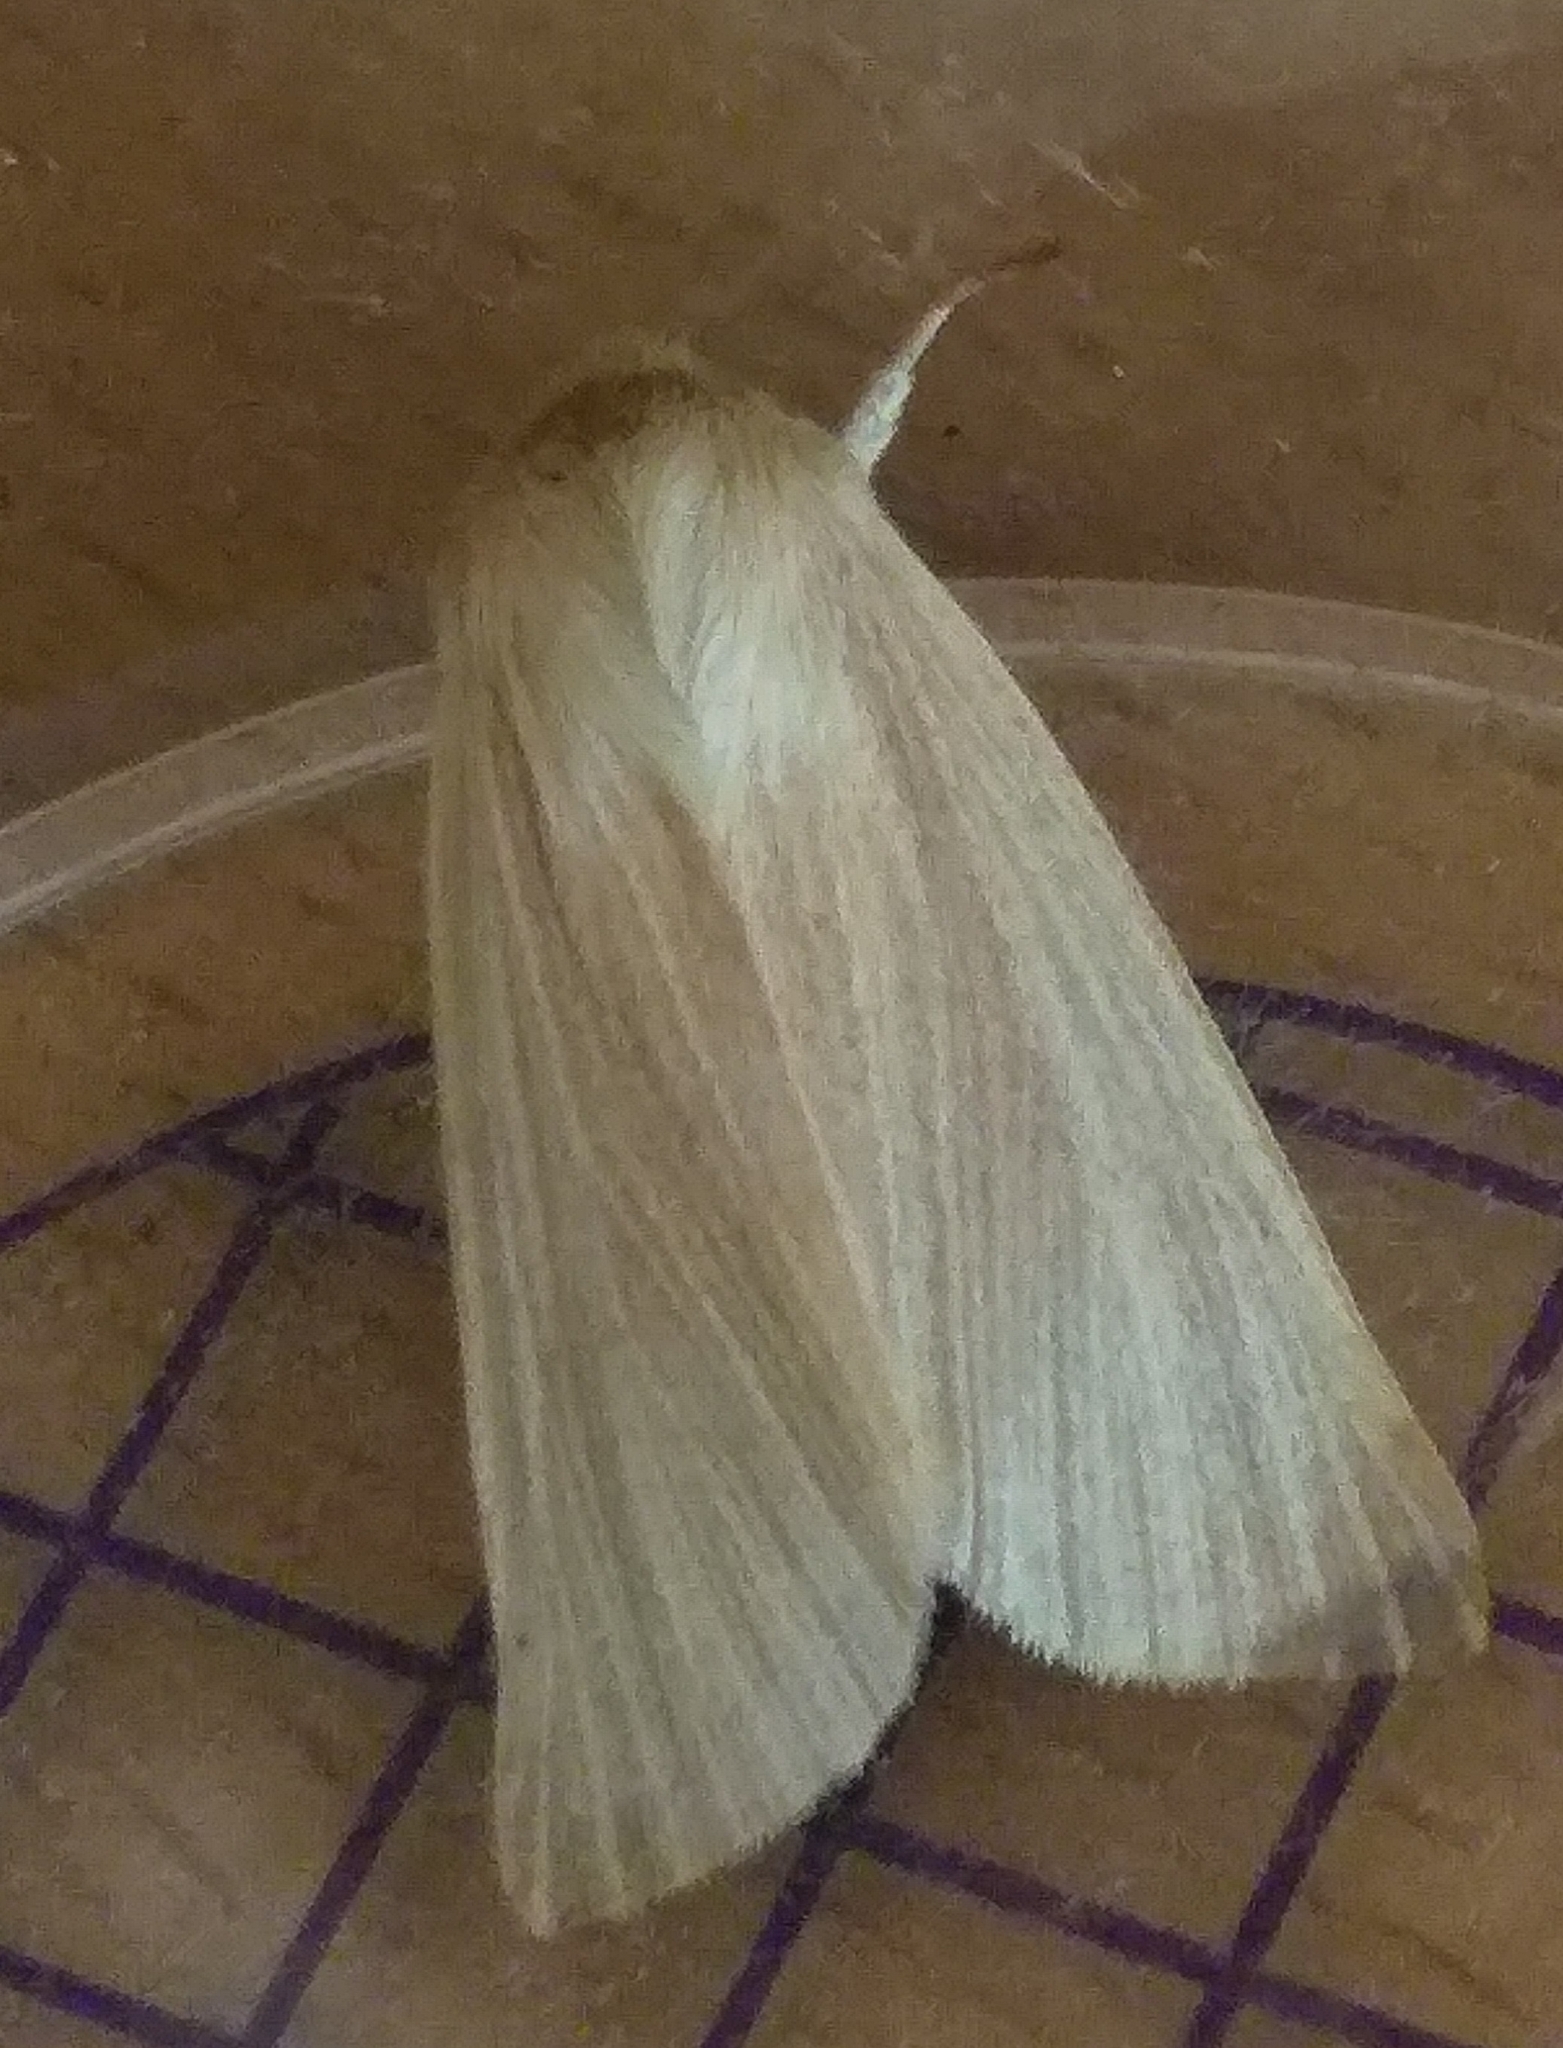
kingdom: Animalia
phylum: Arthropoda
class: Insecta
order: Lepidoptera
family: Noctuidae
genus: Mythimna
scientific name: Mythimna pallens
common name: Common wainscot
